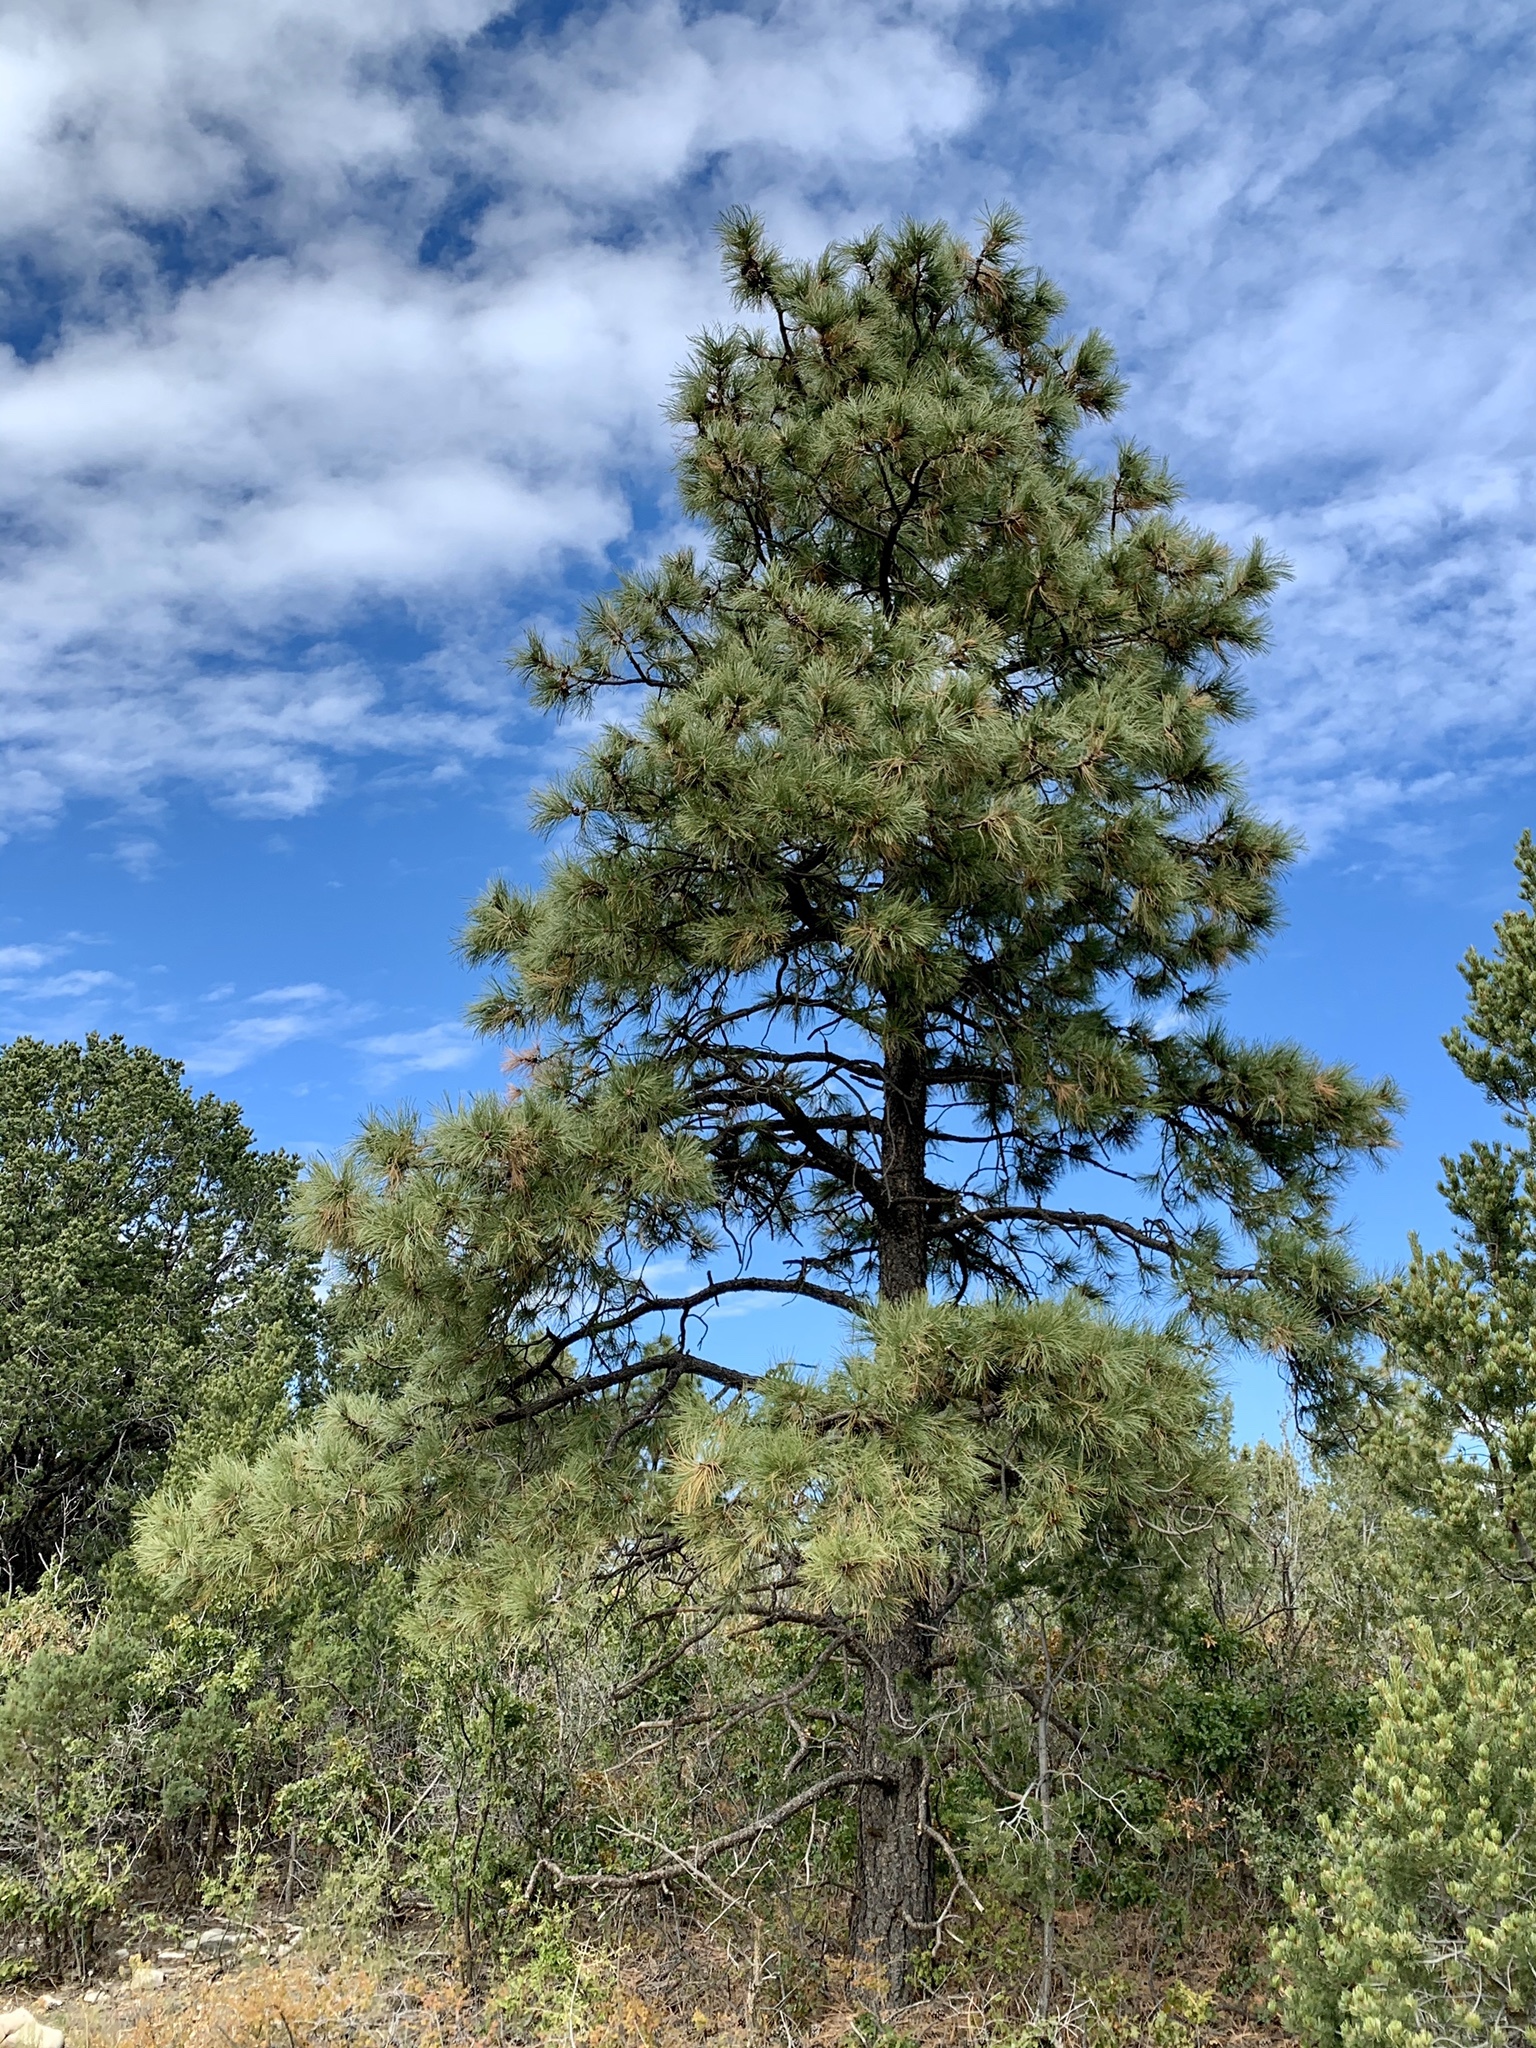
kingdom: Plantae
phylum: Tracheophyta
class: Pinopsida
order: Pinales
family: Pinaceae
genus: Pinus
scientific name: Pinus ponderosa
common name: Western yellow-pine
